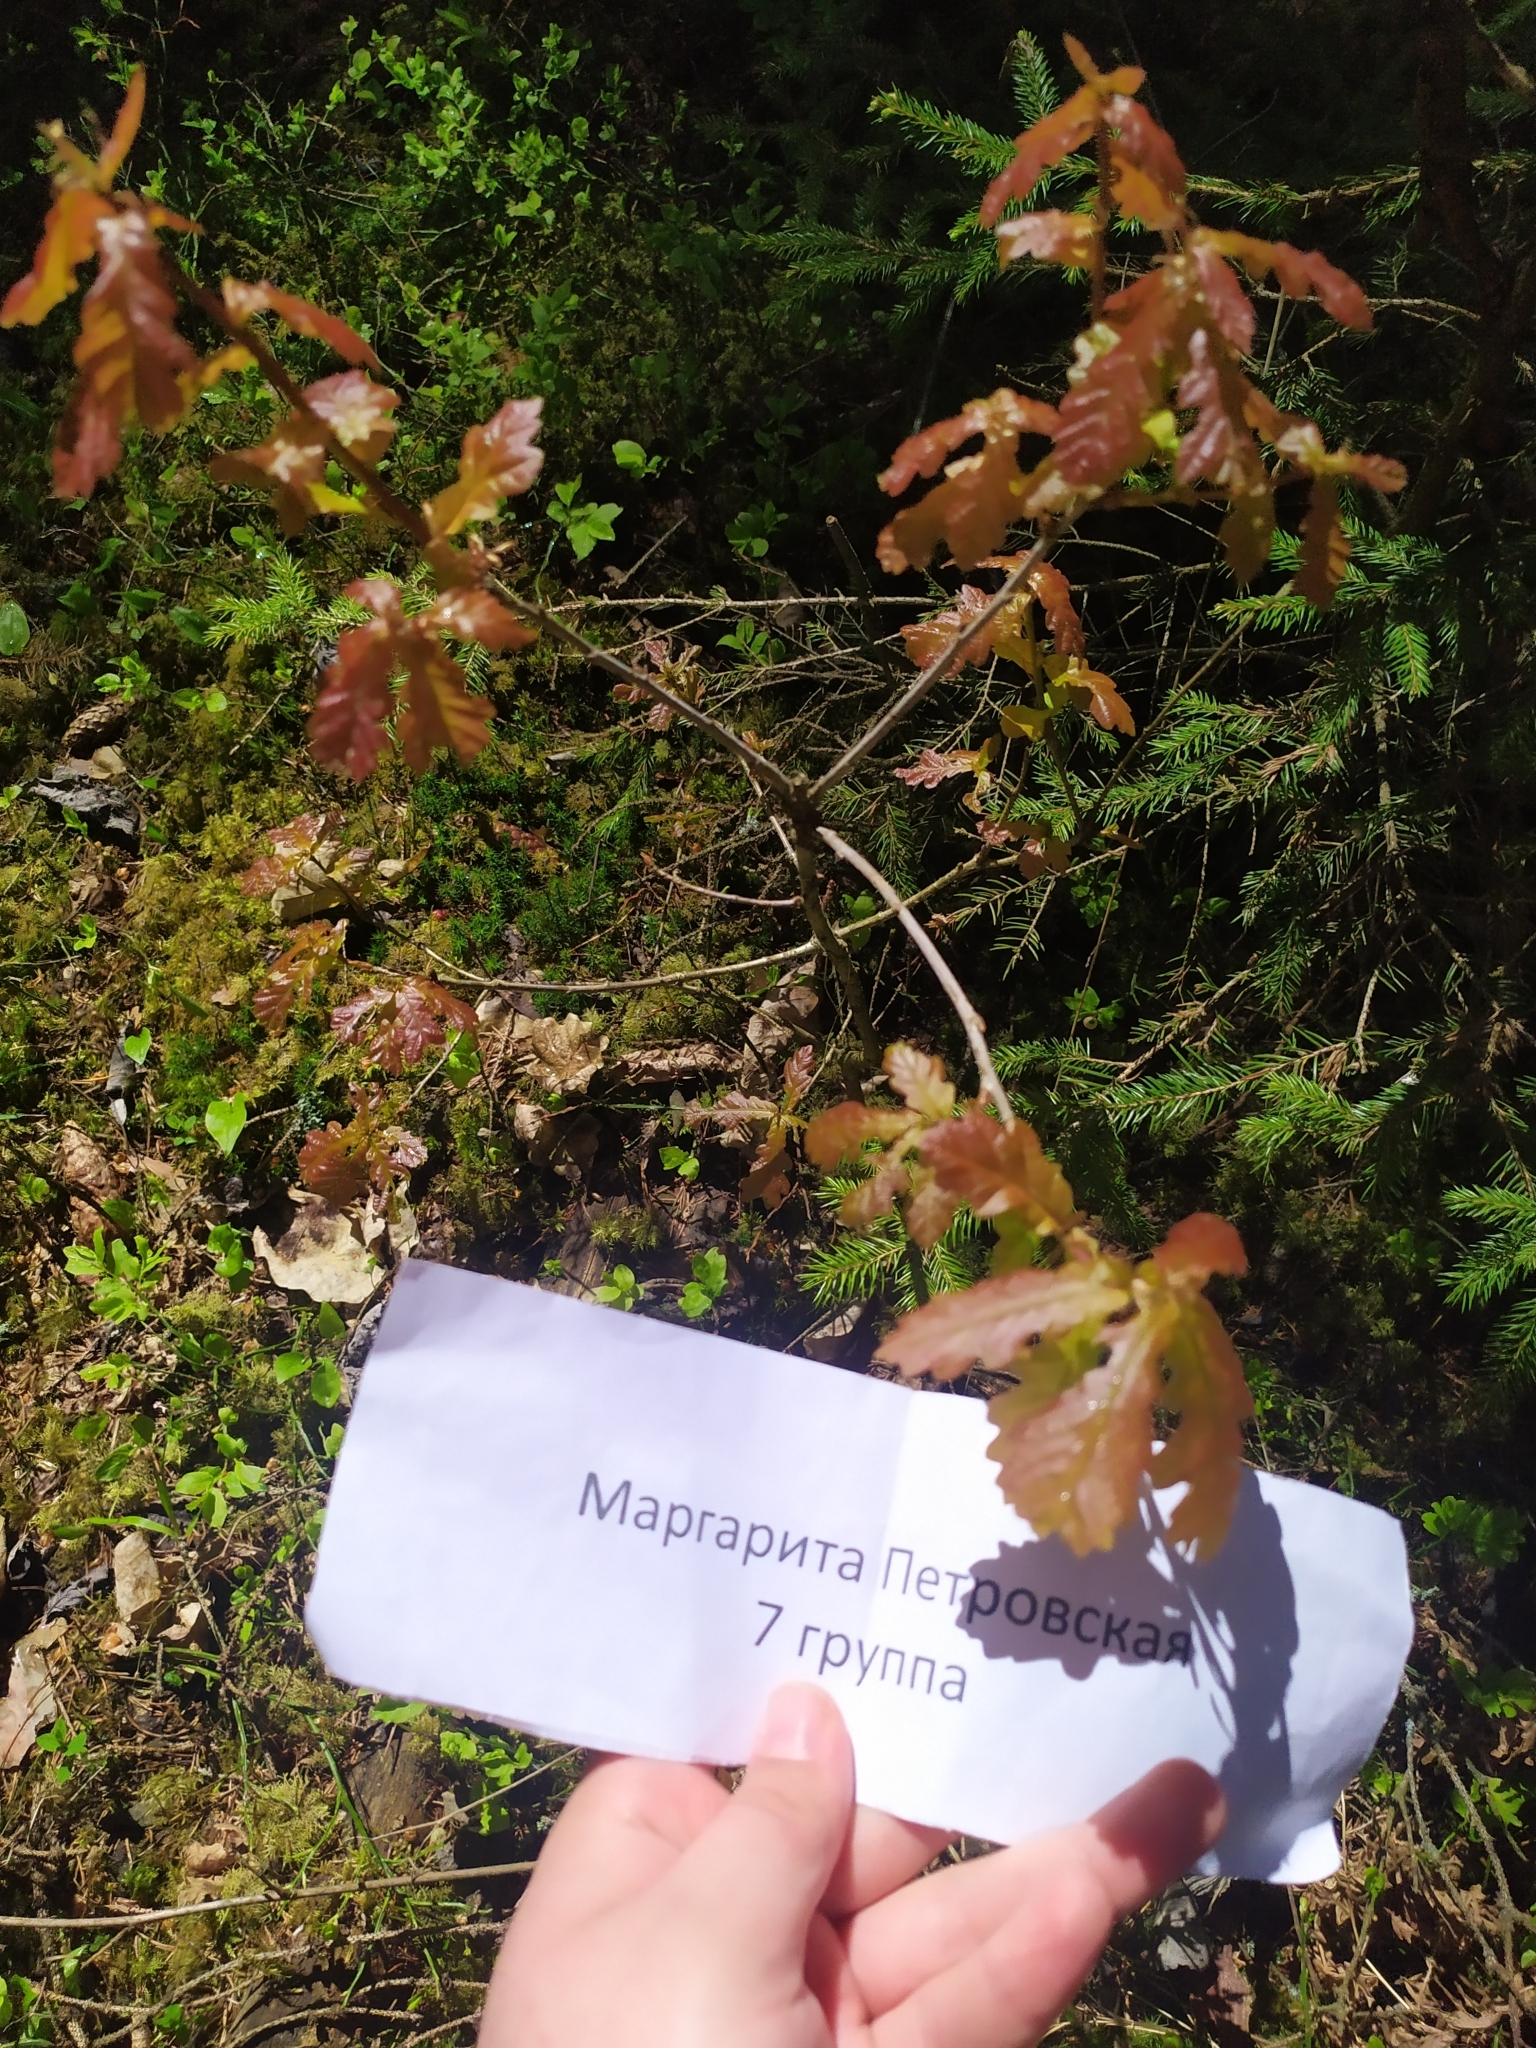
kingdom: Plantae
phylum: Tracheophyta
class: Magnoliopsida
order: Fagales
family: Fagaceae
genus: Quercus
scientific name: Quercus robur
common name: Pedunculate oak
